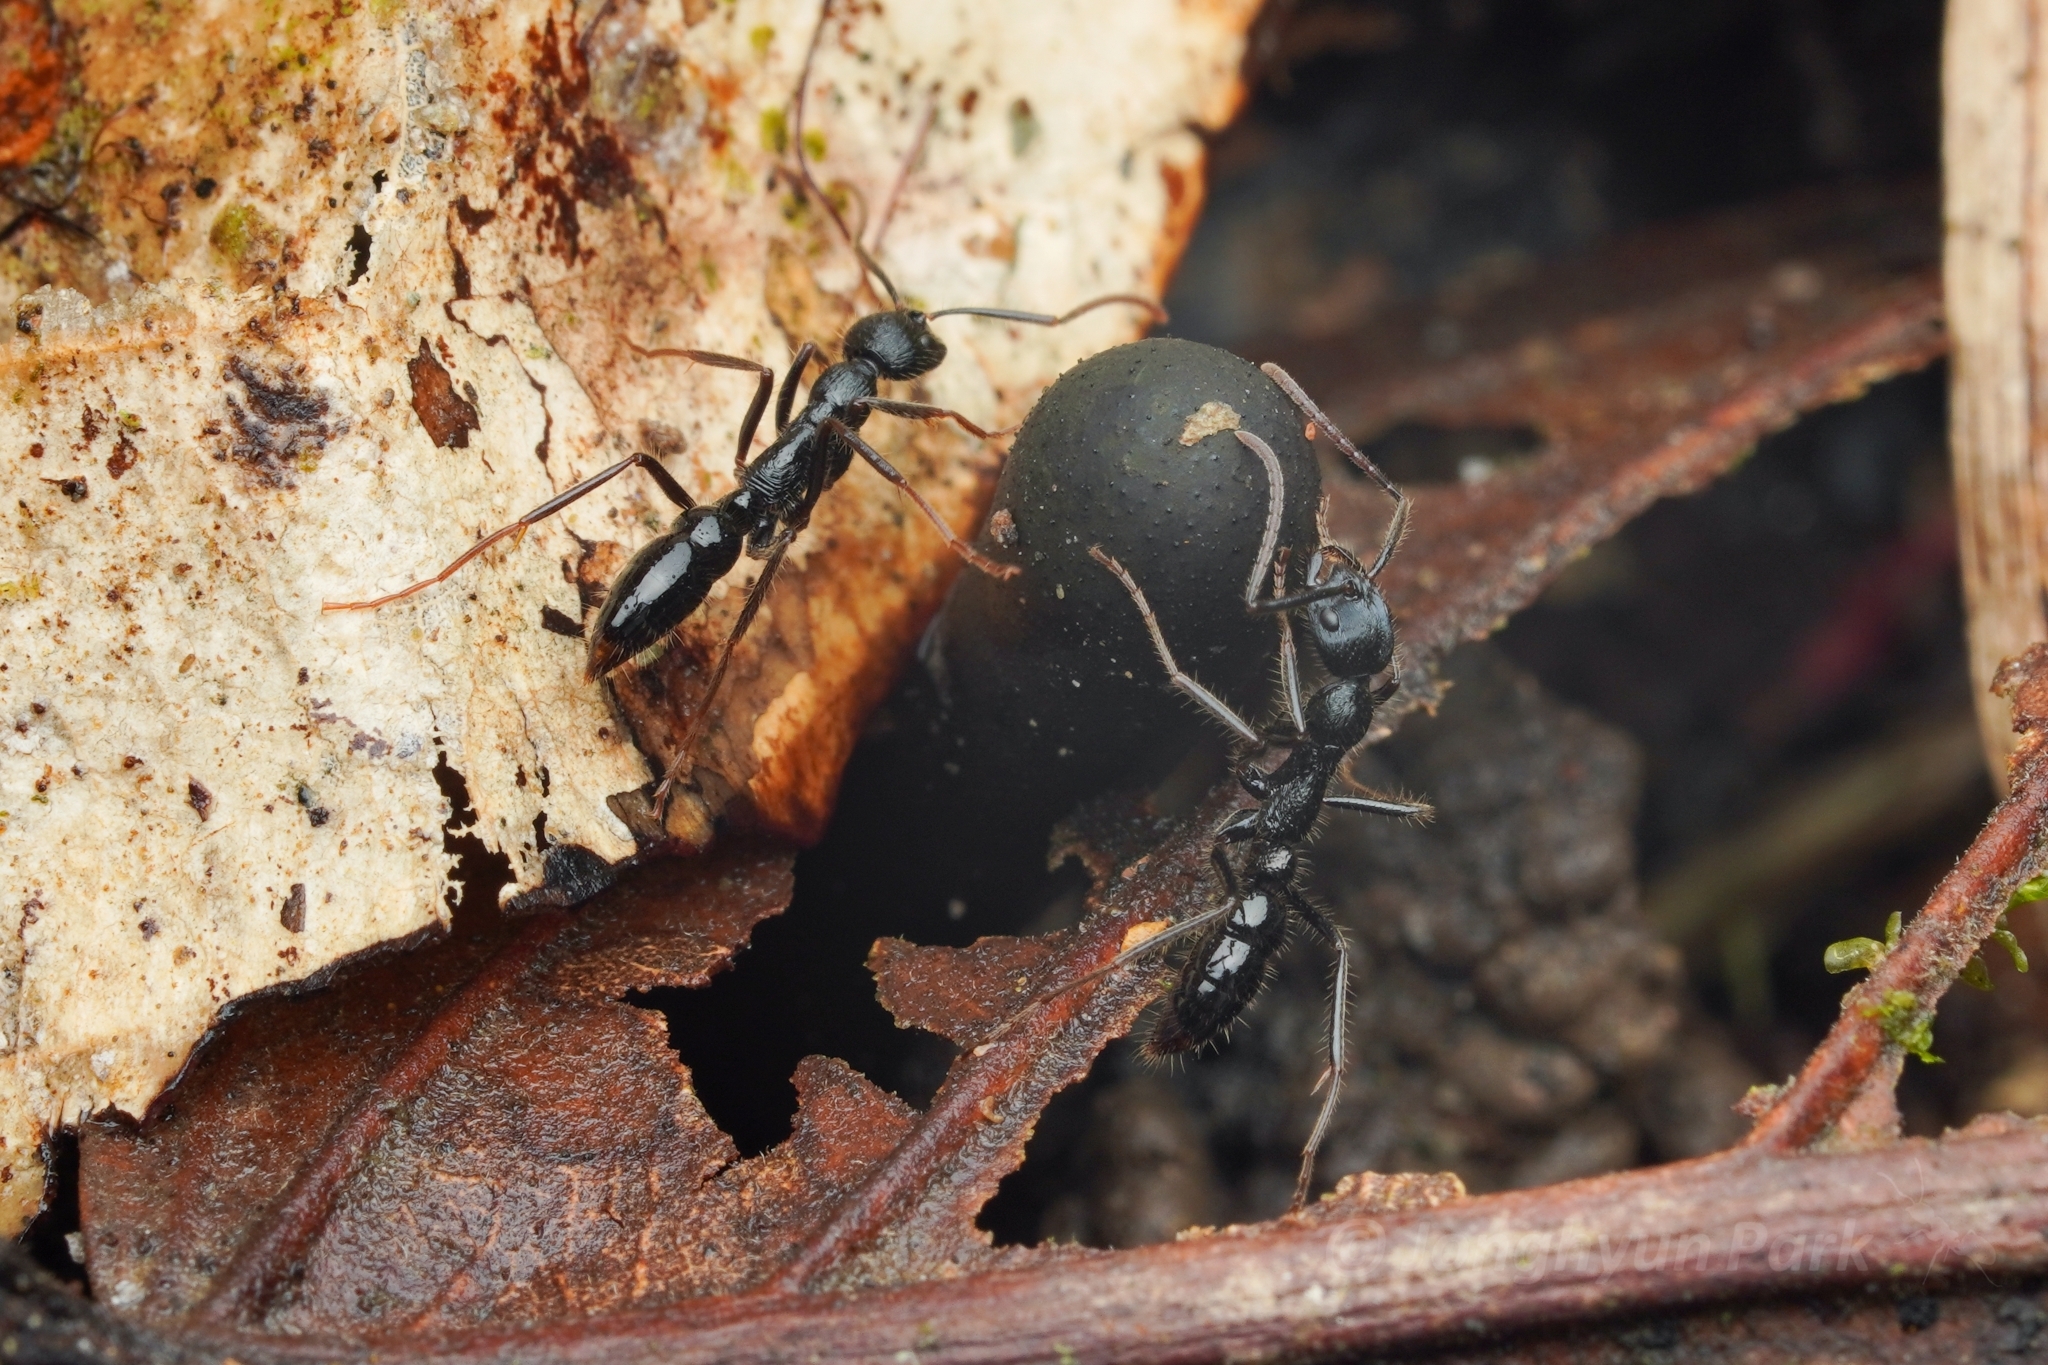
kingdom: Animalia
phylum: Arthropoda
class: Insecta
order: Hymenoptera
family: Formicidae
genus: Leptogenys
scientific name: Leptogenys diminuta
